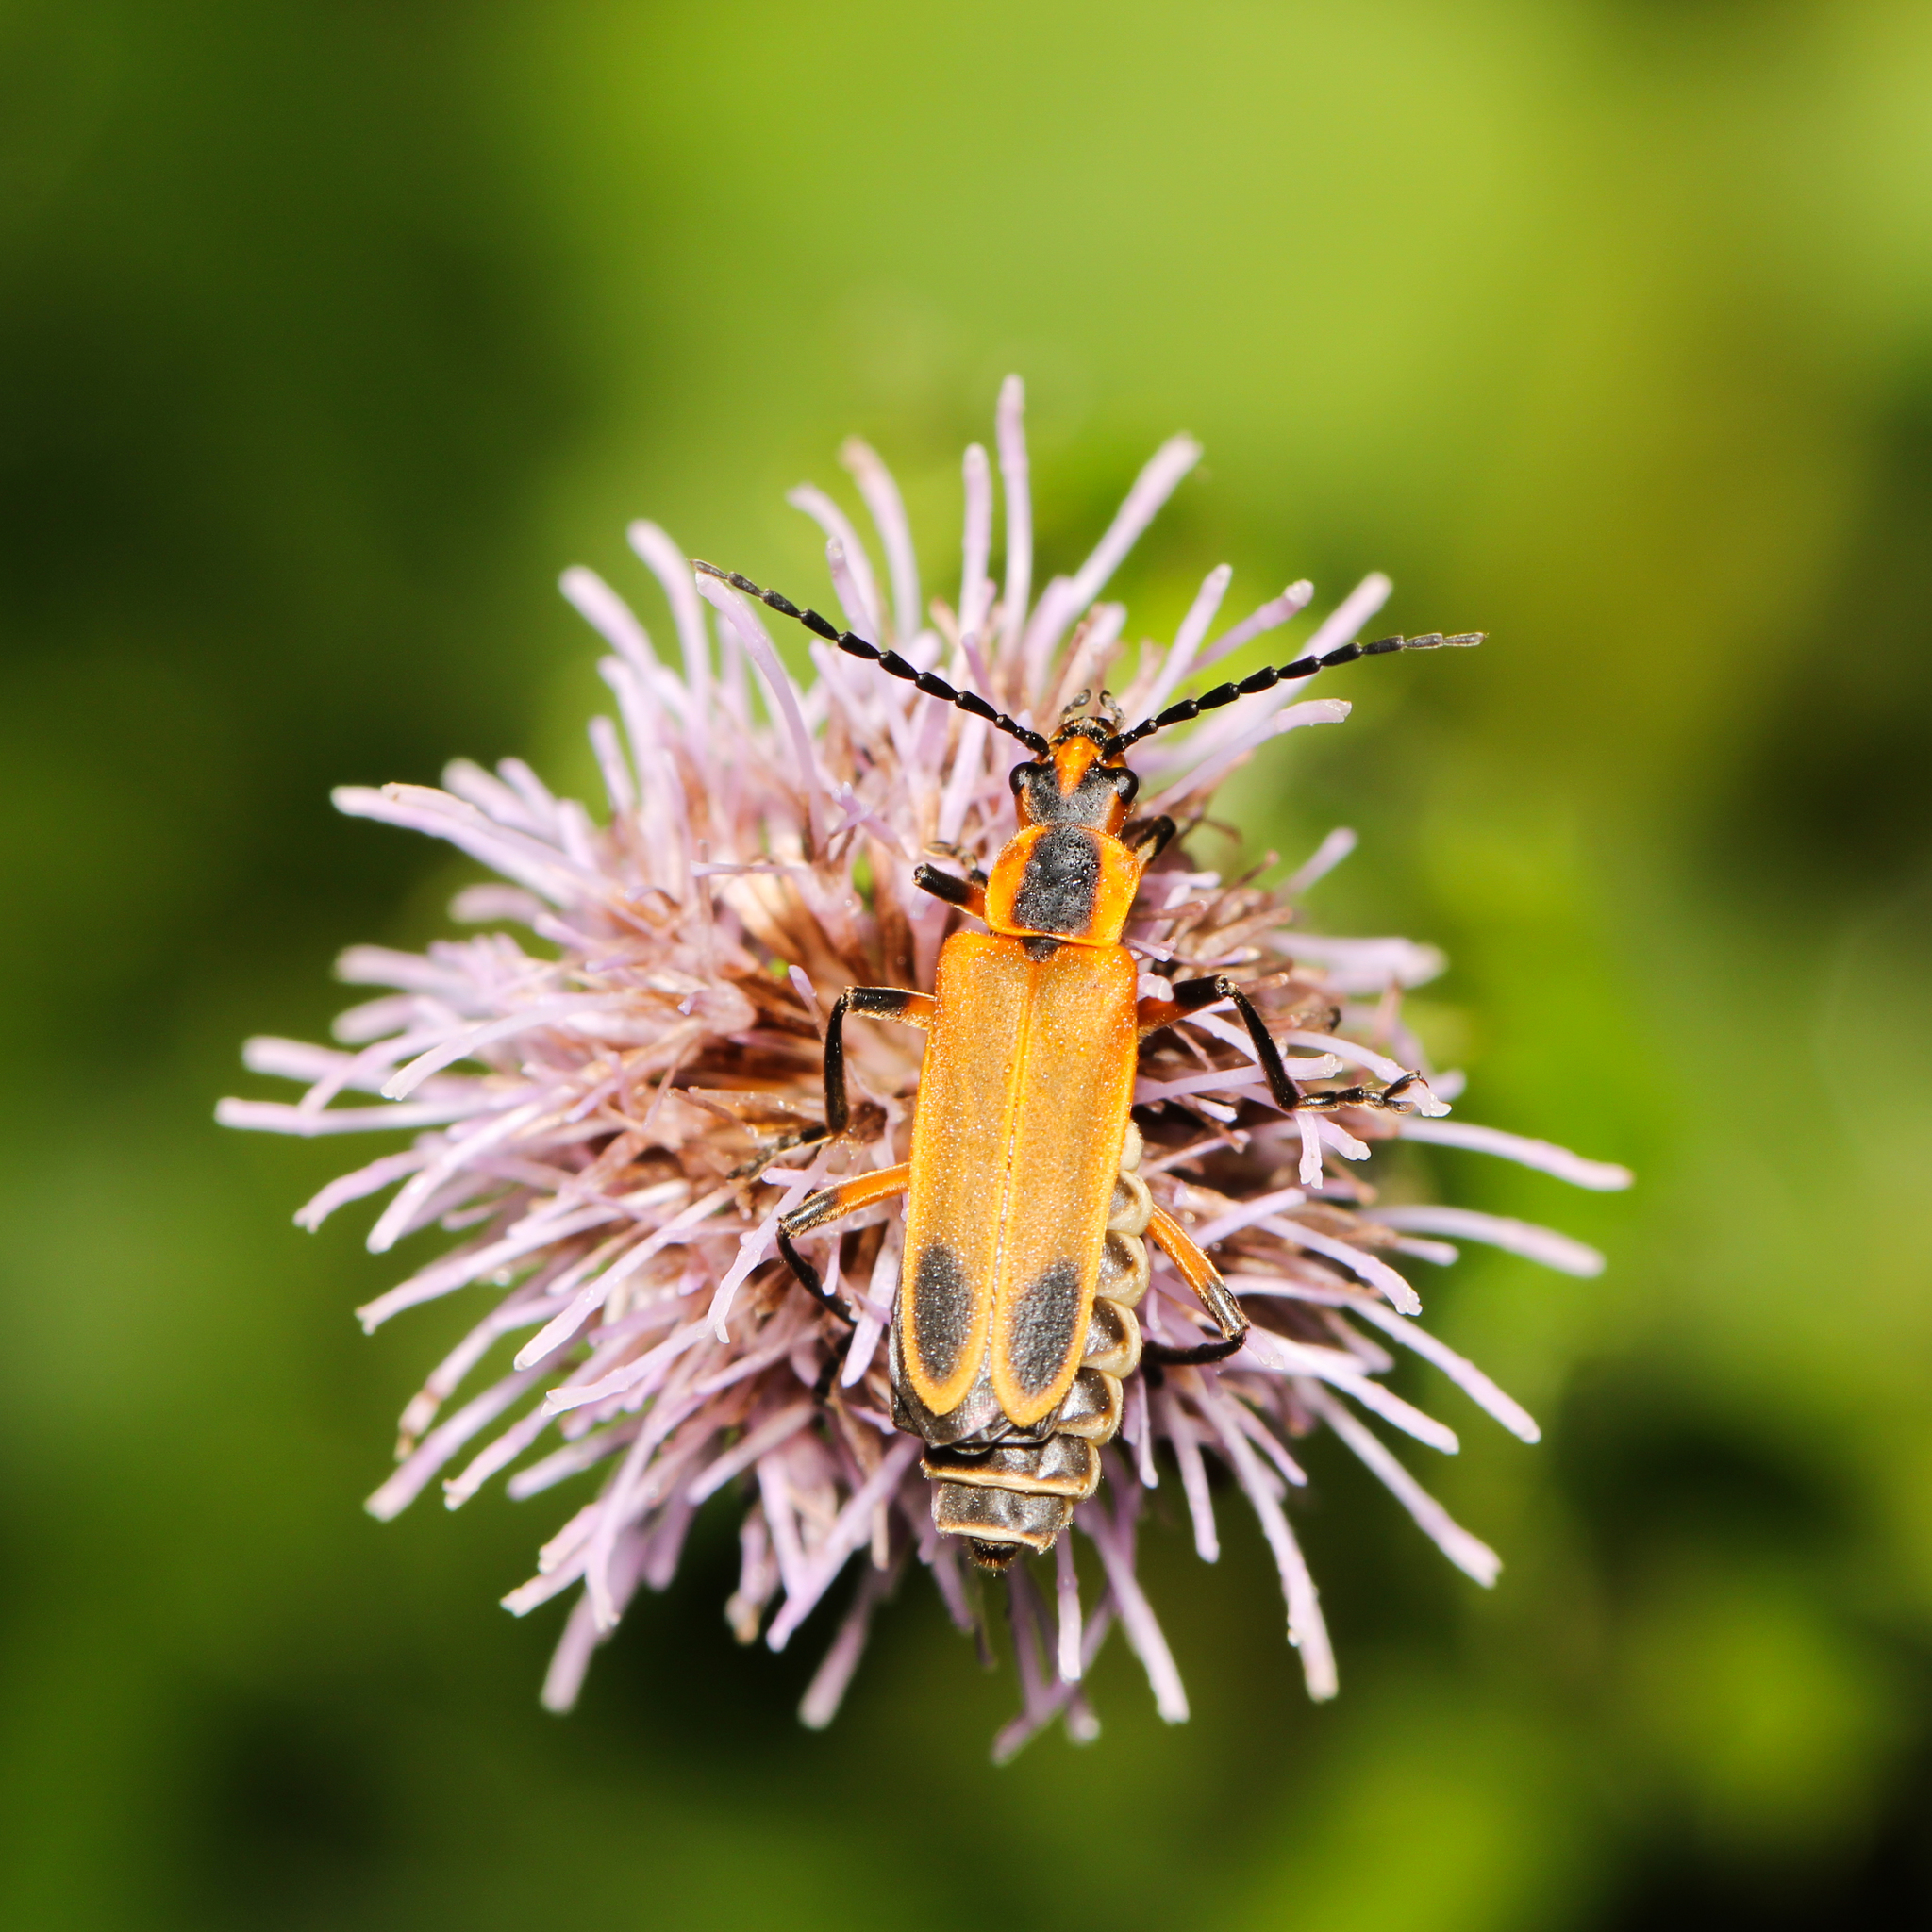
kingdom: Animalia
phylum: Arthropoda
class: Insecta
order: Coleoptera
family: Cantharidae
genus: Chauliognathus
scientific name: Chauliognathus marginatus
